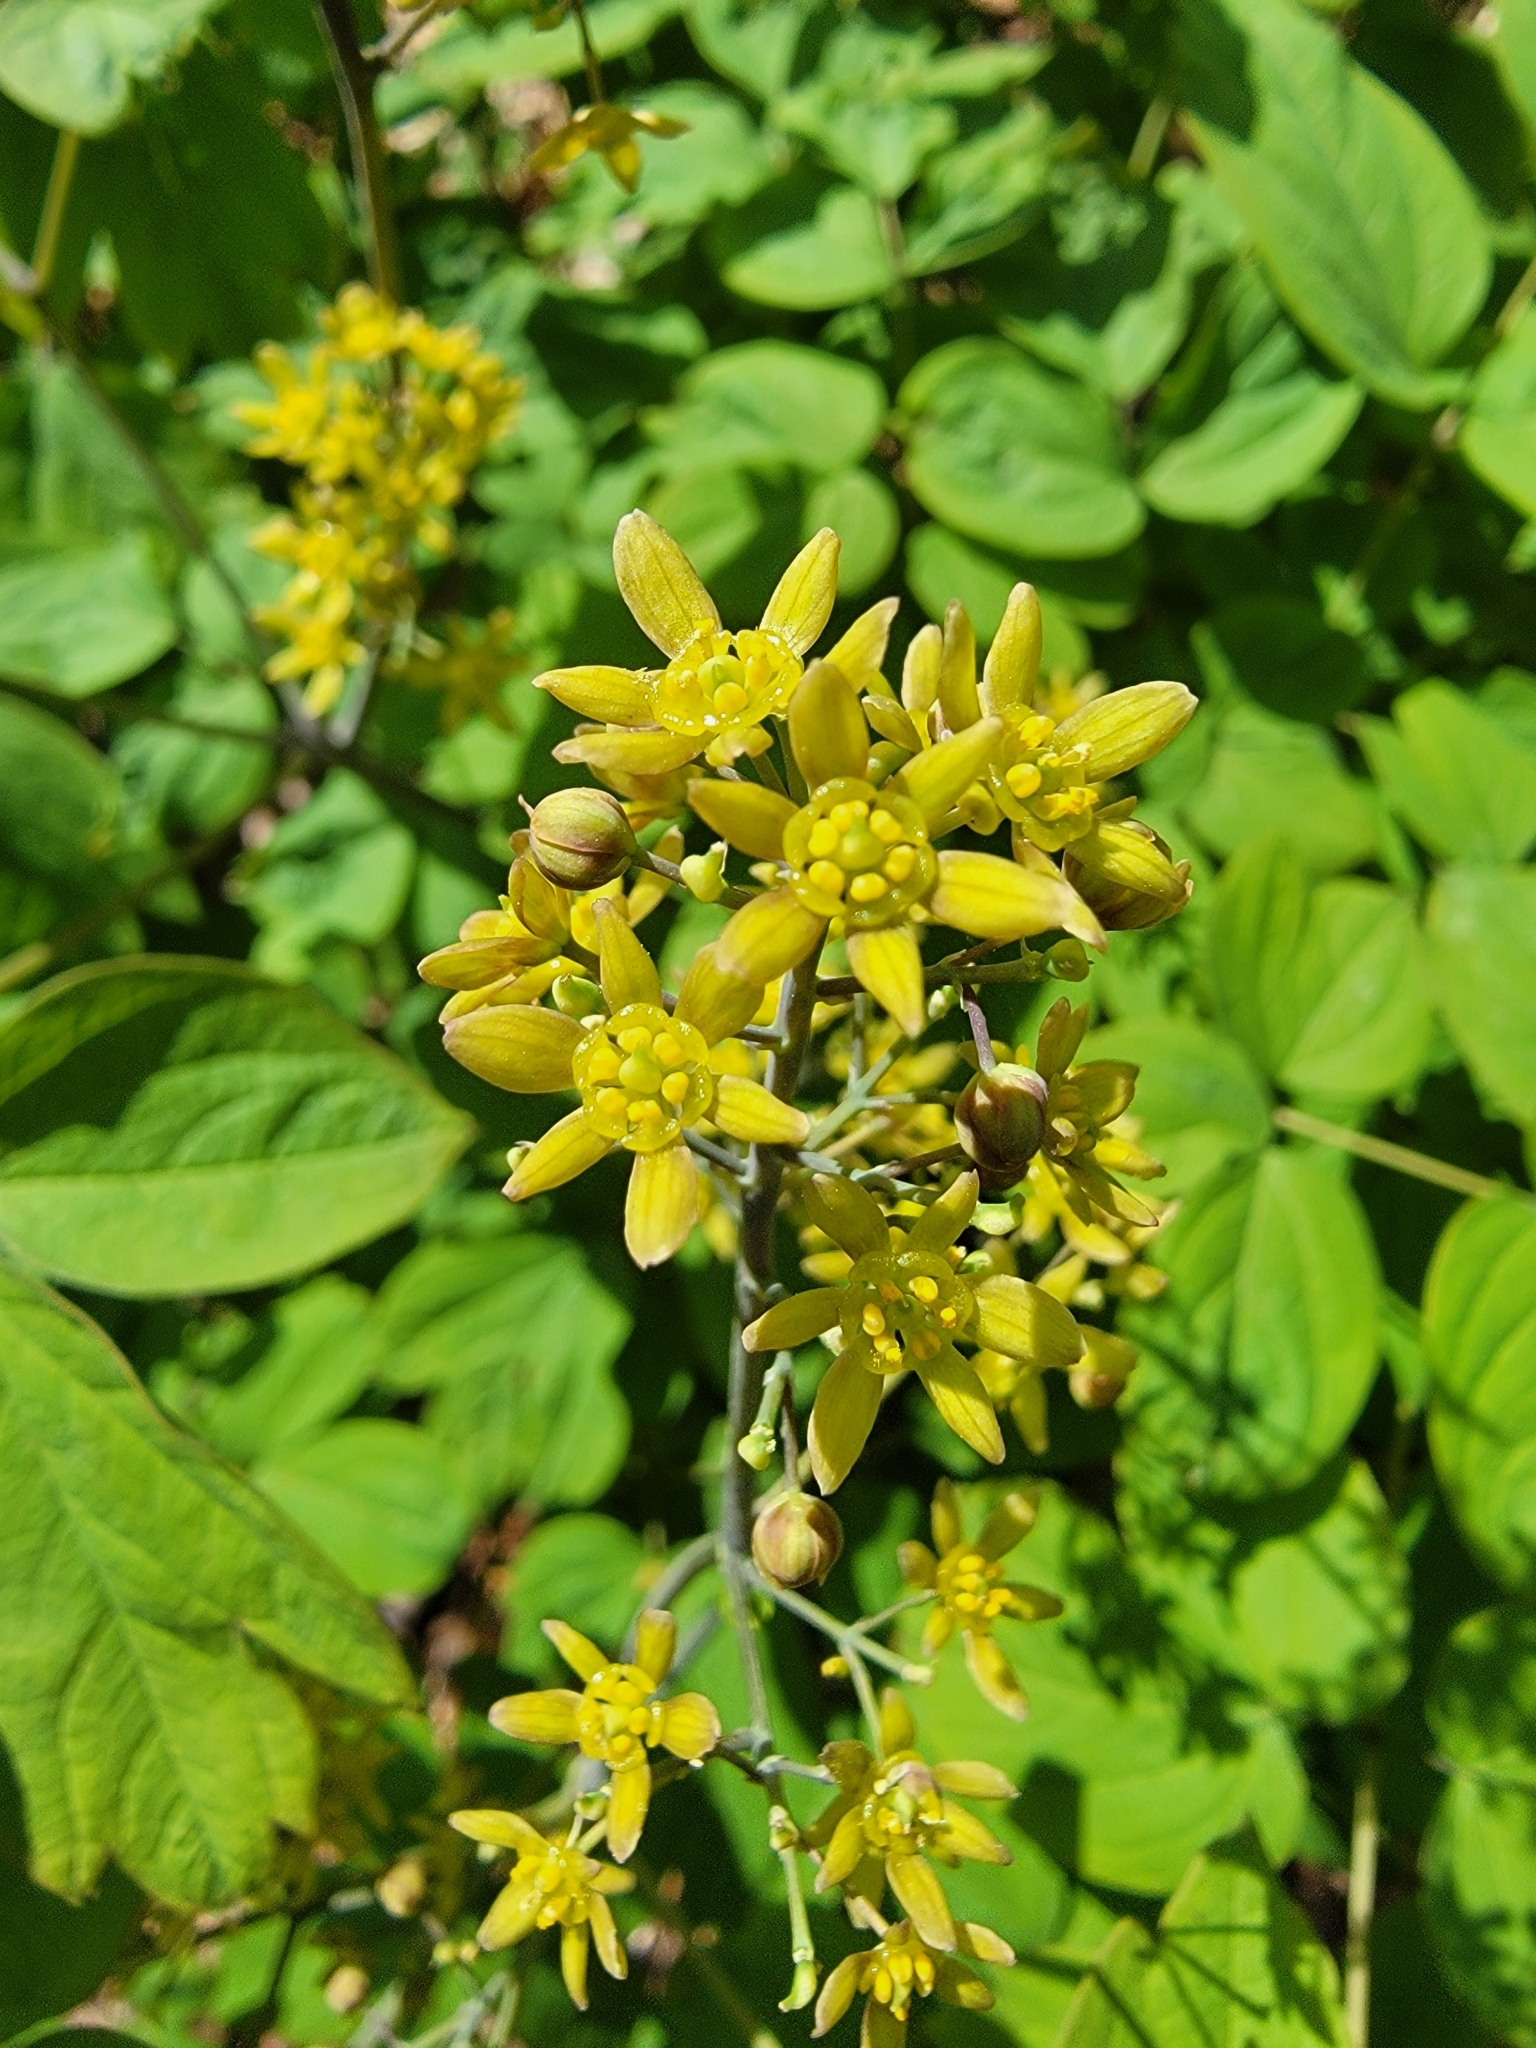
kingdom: Plantae
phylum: Tracheophyta
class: Magnoliopsida
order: Ranunculales
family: Berberidaceae
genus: Caulophyllum
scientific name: Caulophyllum thalictroides
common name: Blue cohosh
